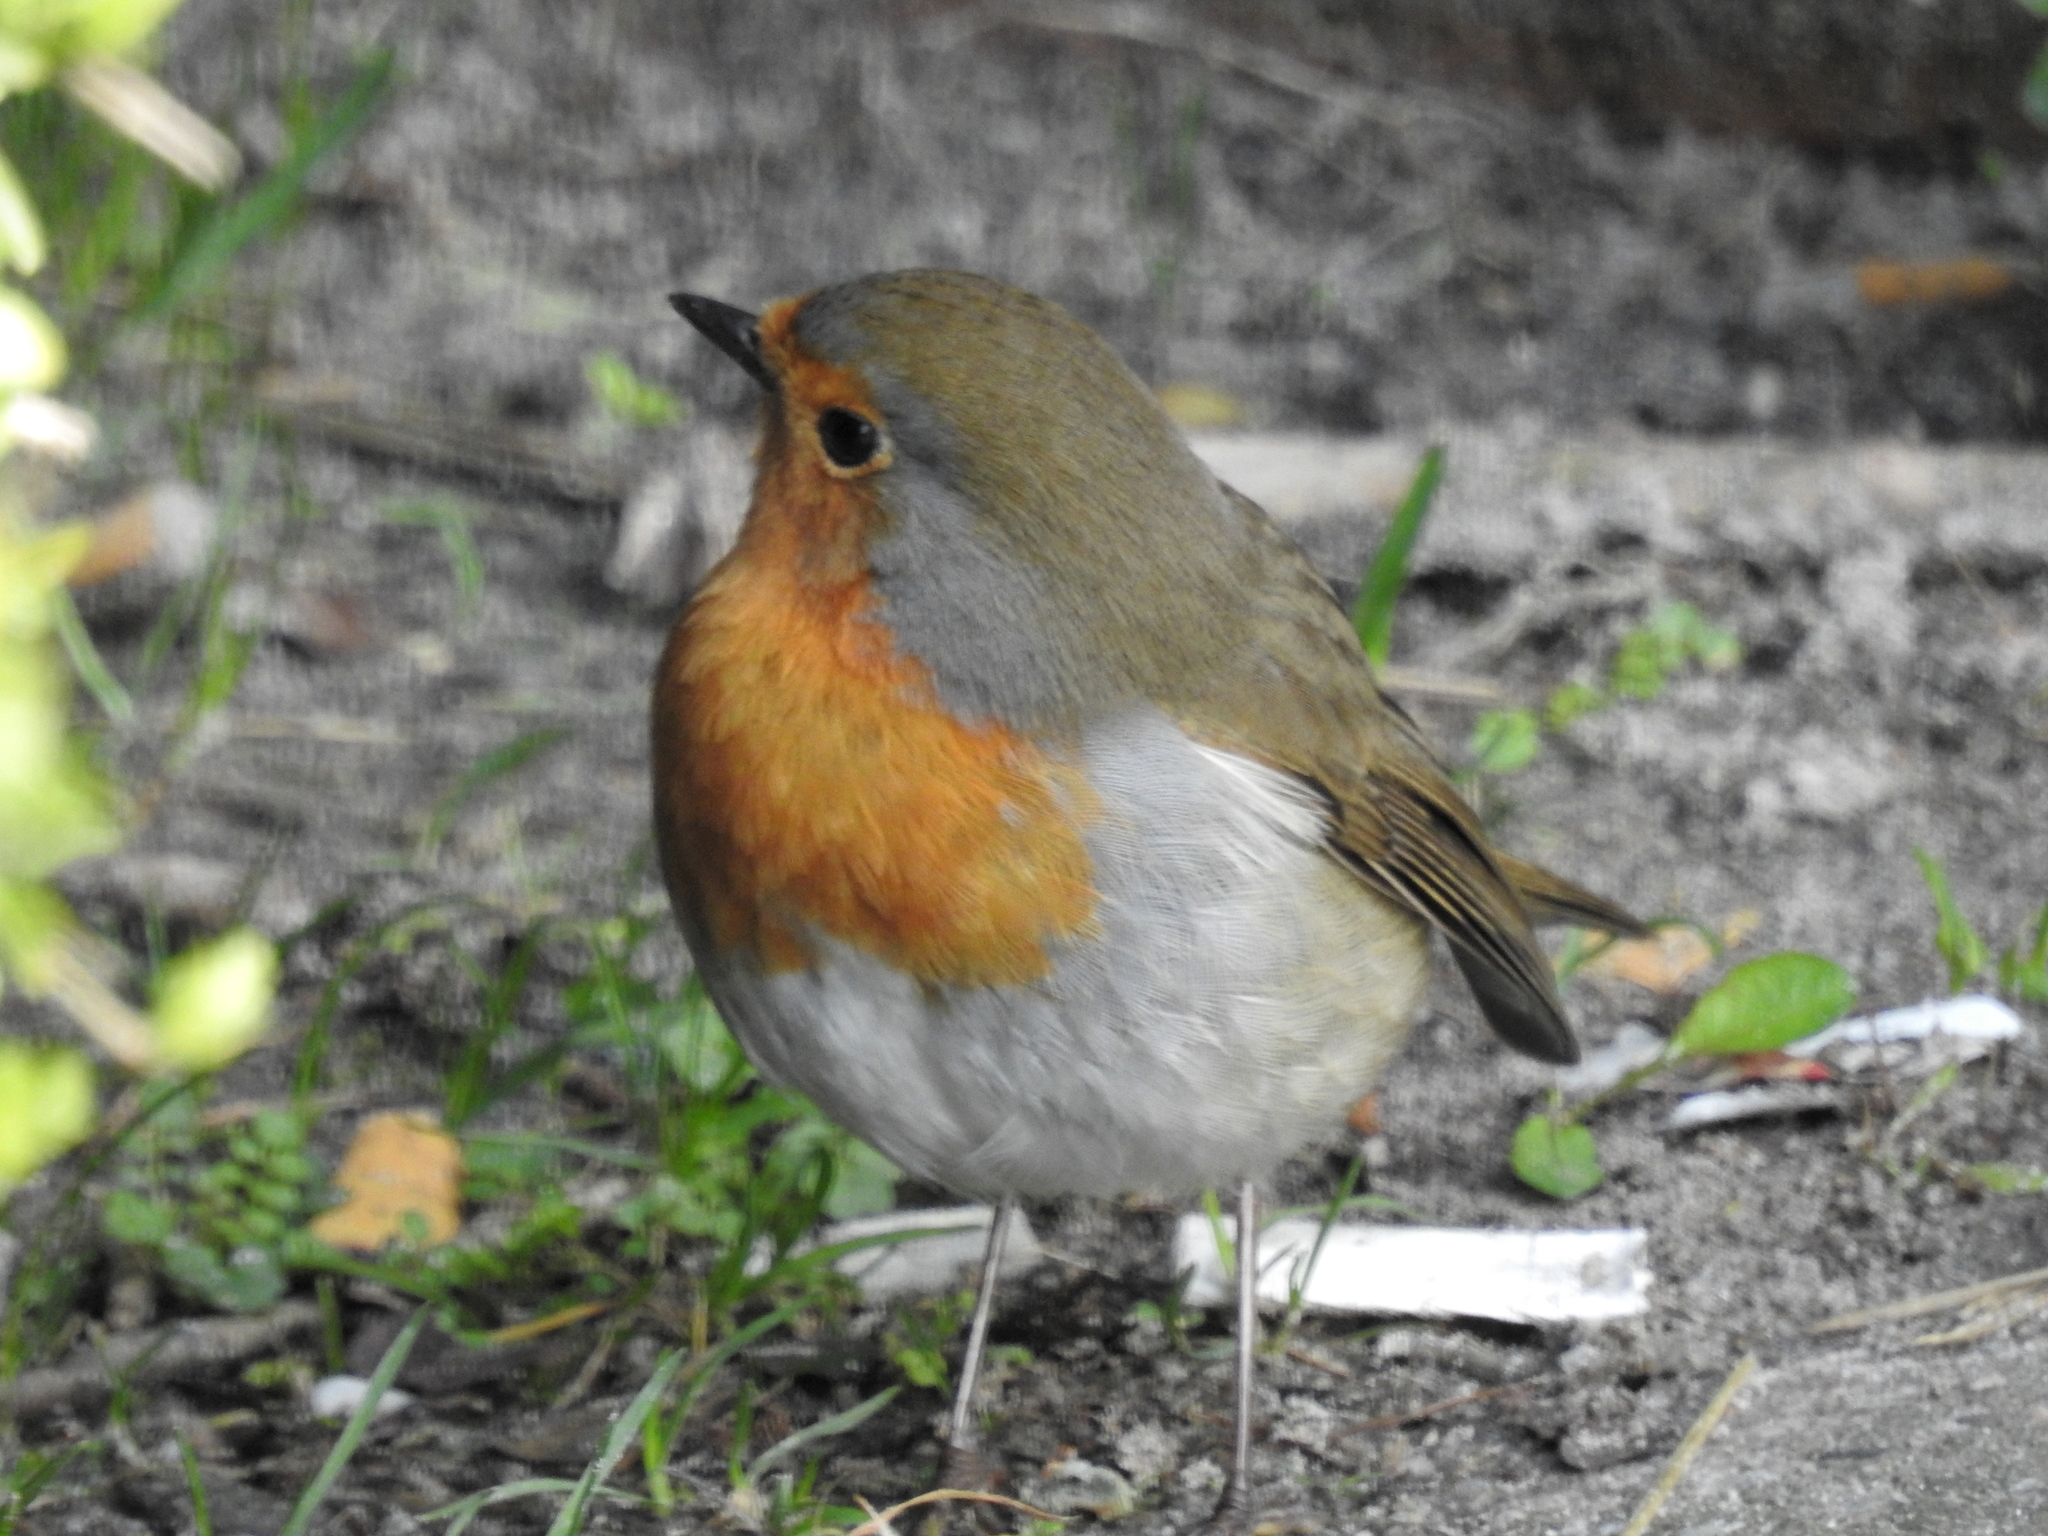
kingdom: Animalia
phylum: Chordata
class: Aves
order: Passeriformes
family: Muscicapidae
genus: Erithacus
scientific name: Erithacus rubecula
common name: European robin
